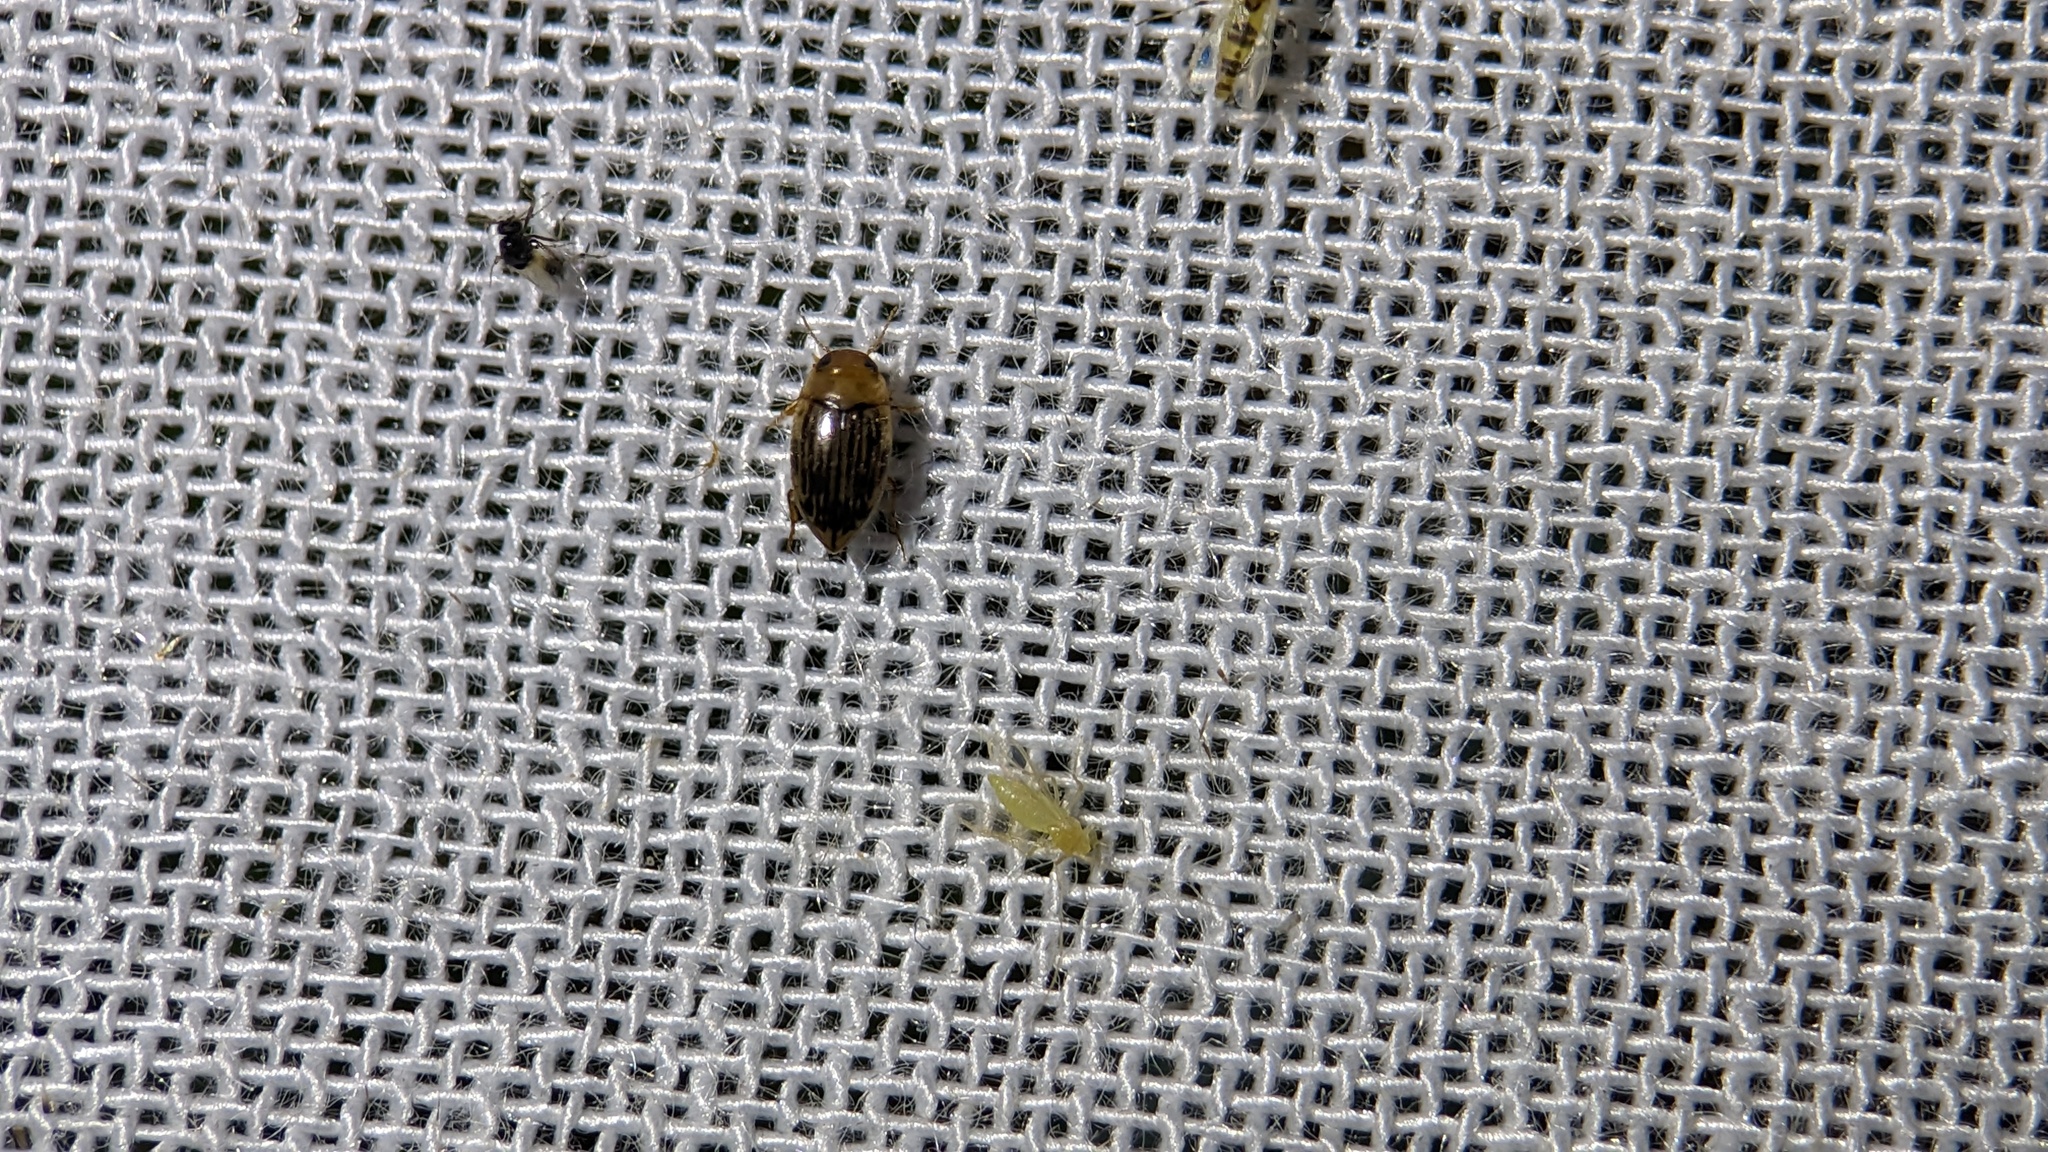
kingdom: Animalia
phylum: Arthropoda
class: Insecta
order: Coleoptera
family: Dytiscidae
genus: Neoporus
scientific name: Neoporus vittatipennis
